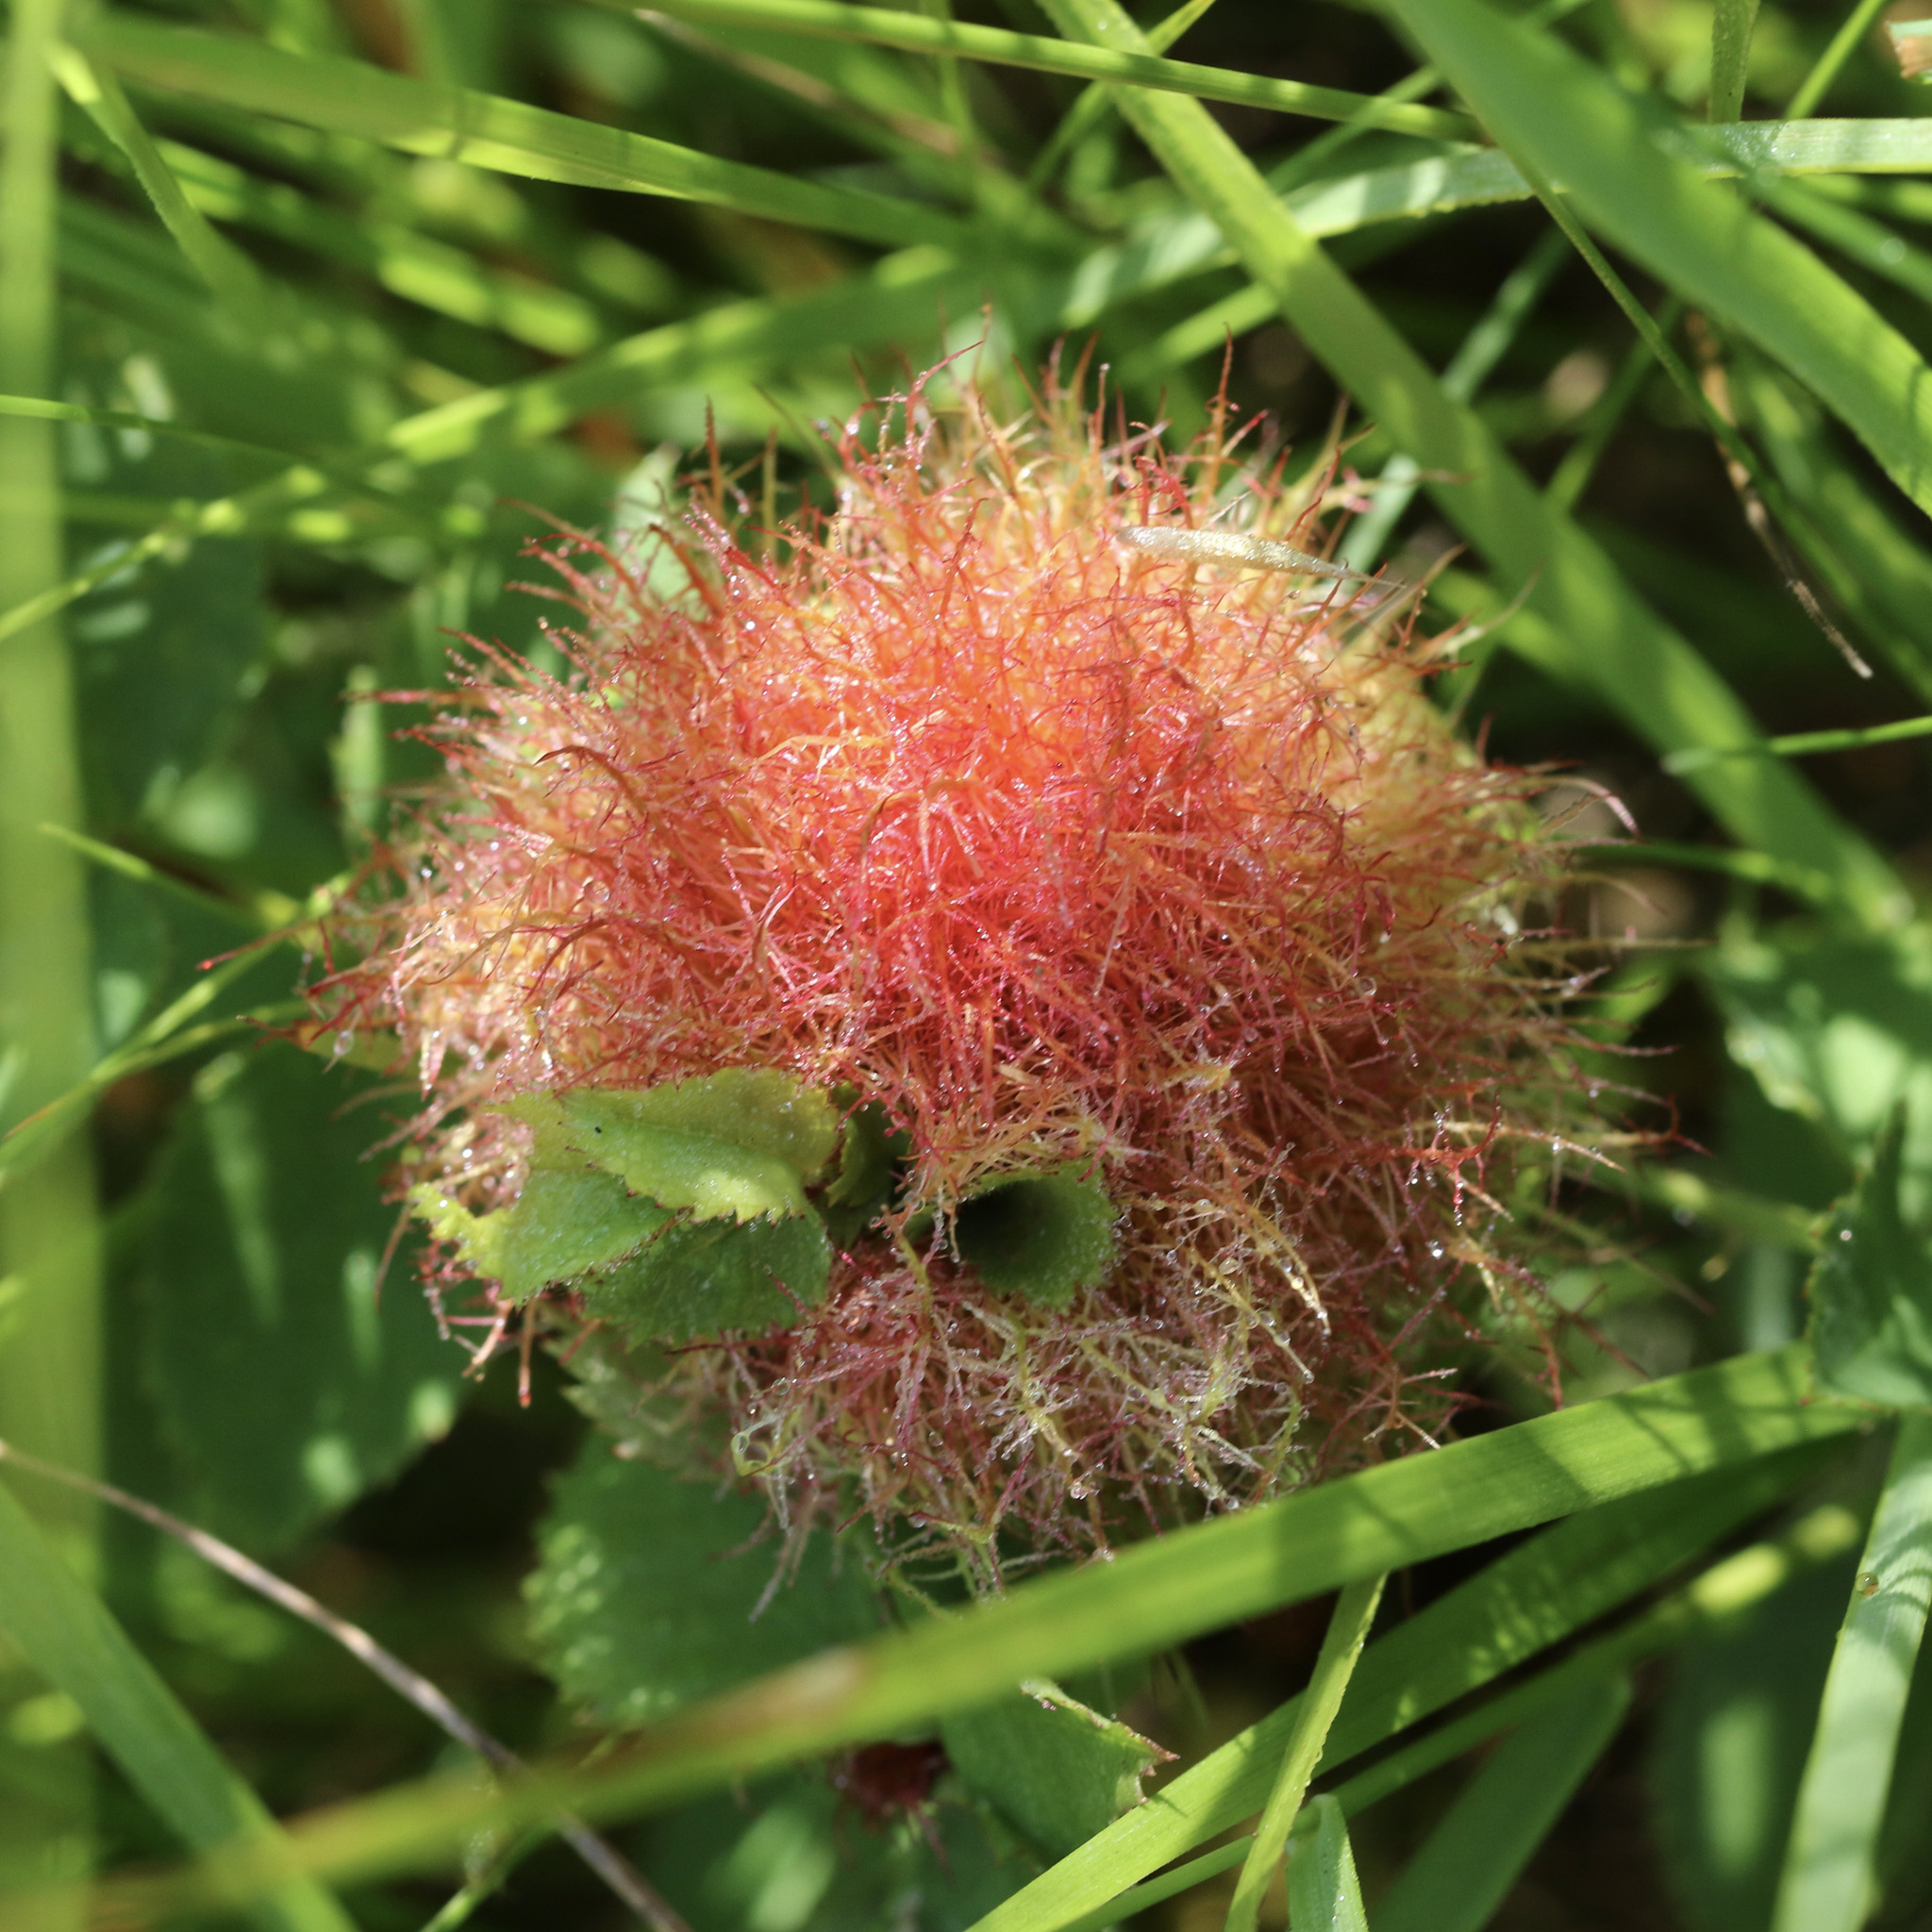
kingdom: Animalia
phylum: Arthropoda
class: Insecta
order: Hymenoptera
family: Cynipidae
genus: Diplolepis
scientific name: Diplolepis rosae
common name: Bedeguar gall
